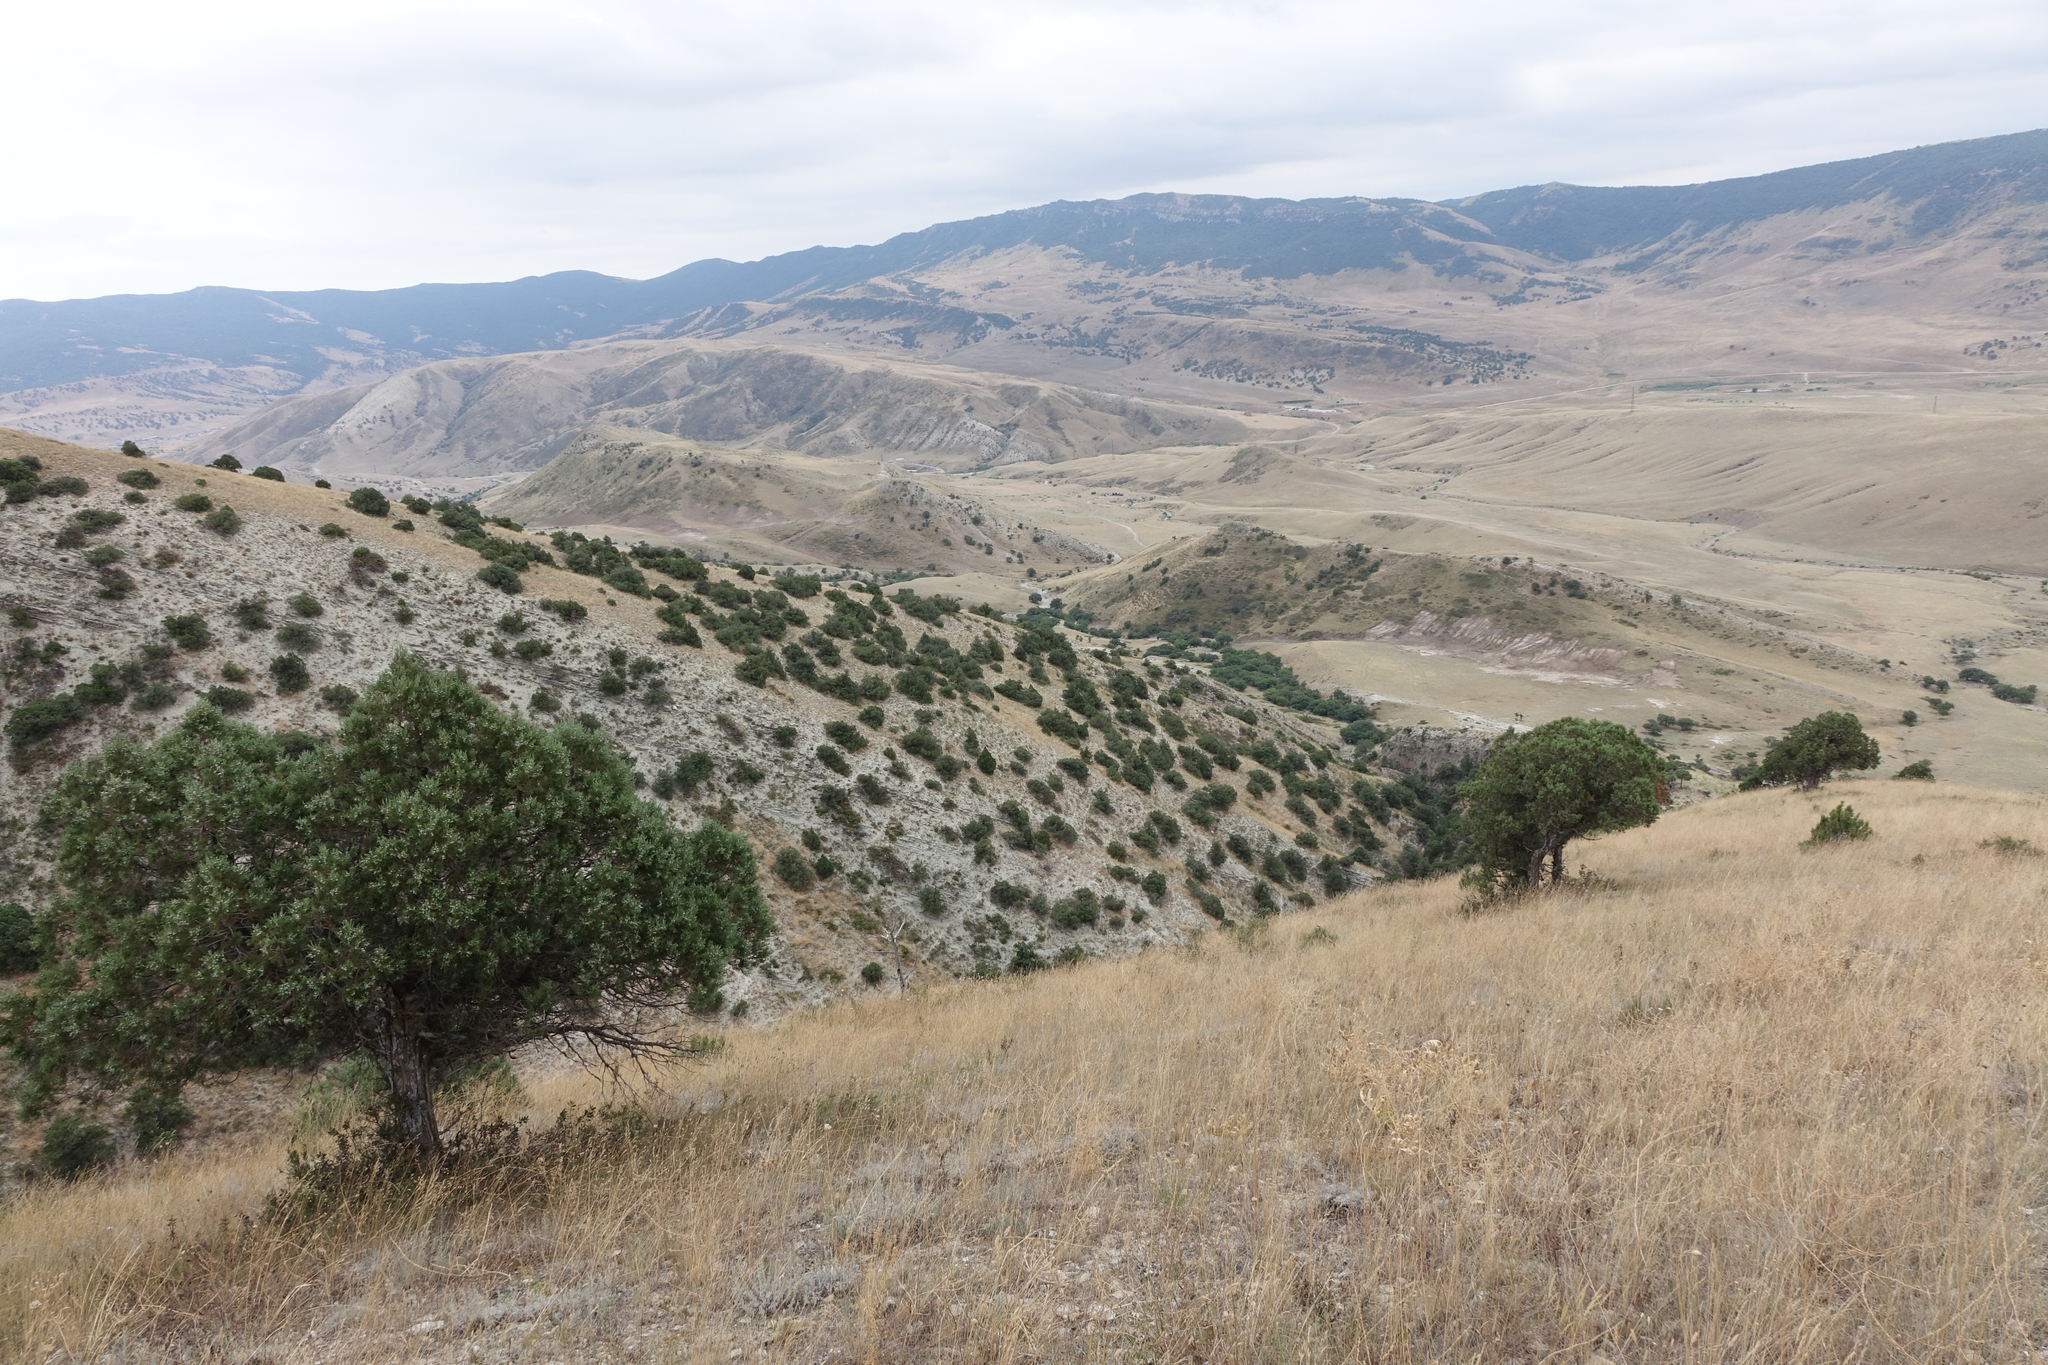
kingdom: Plantae
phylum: Tracheophyta
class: Pinopsida
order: Pinales
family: Cupressaceae
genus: Juniperus
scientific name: Juniperus excelsa
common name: Crimean juniper
